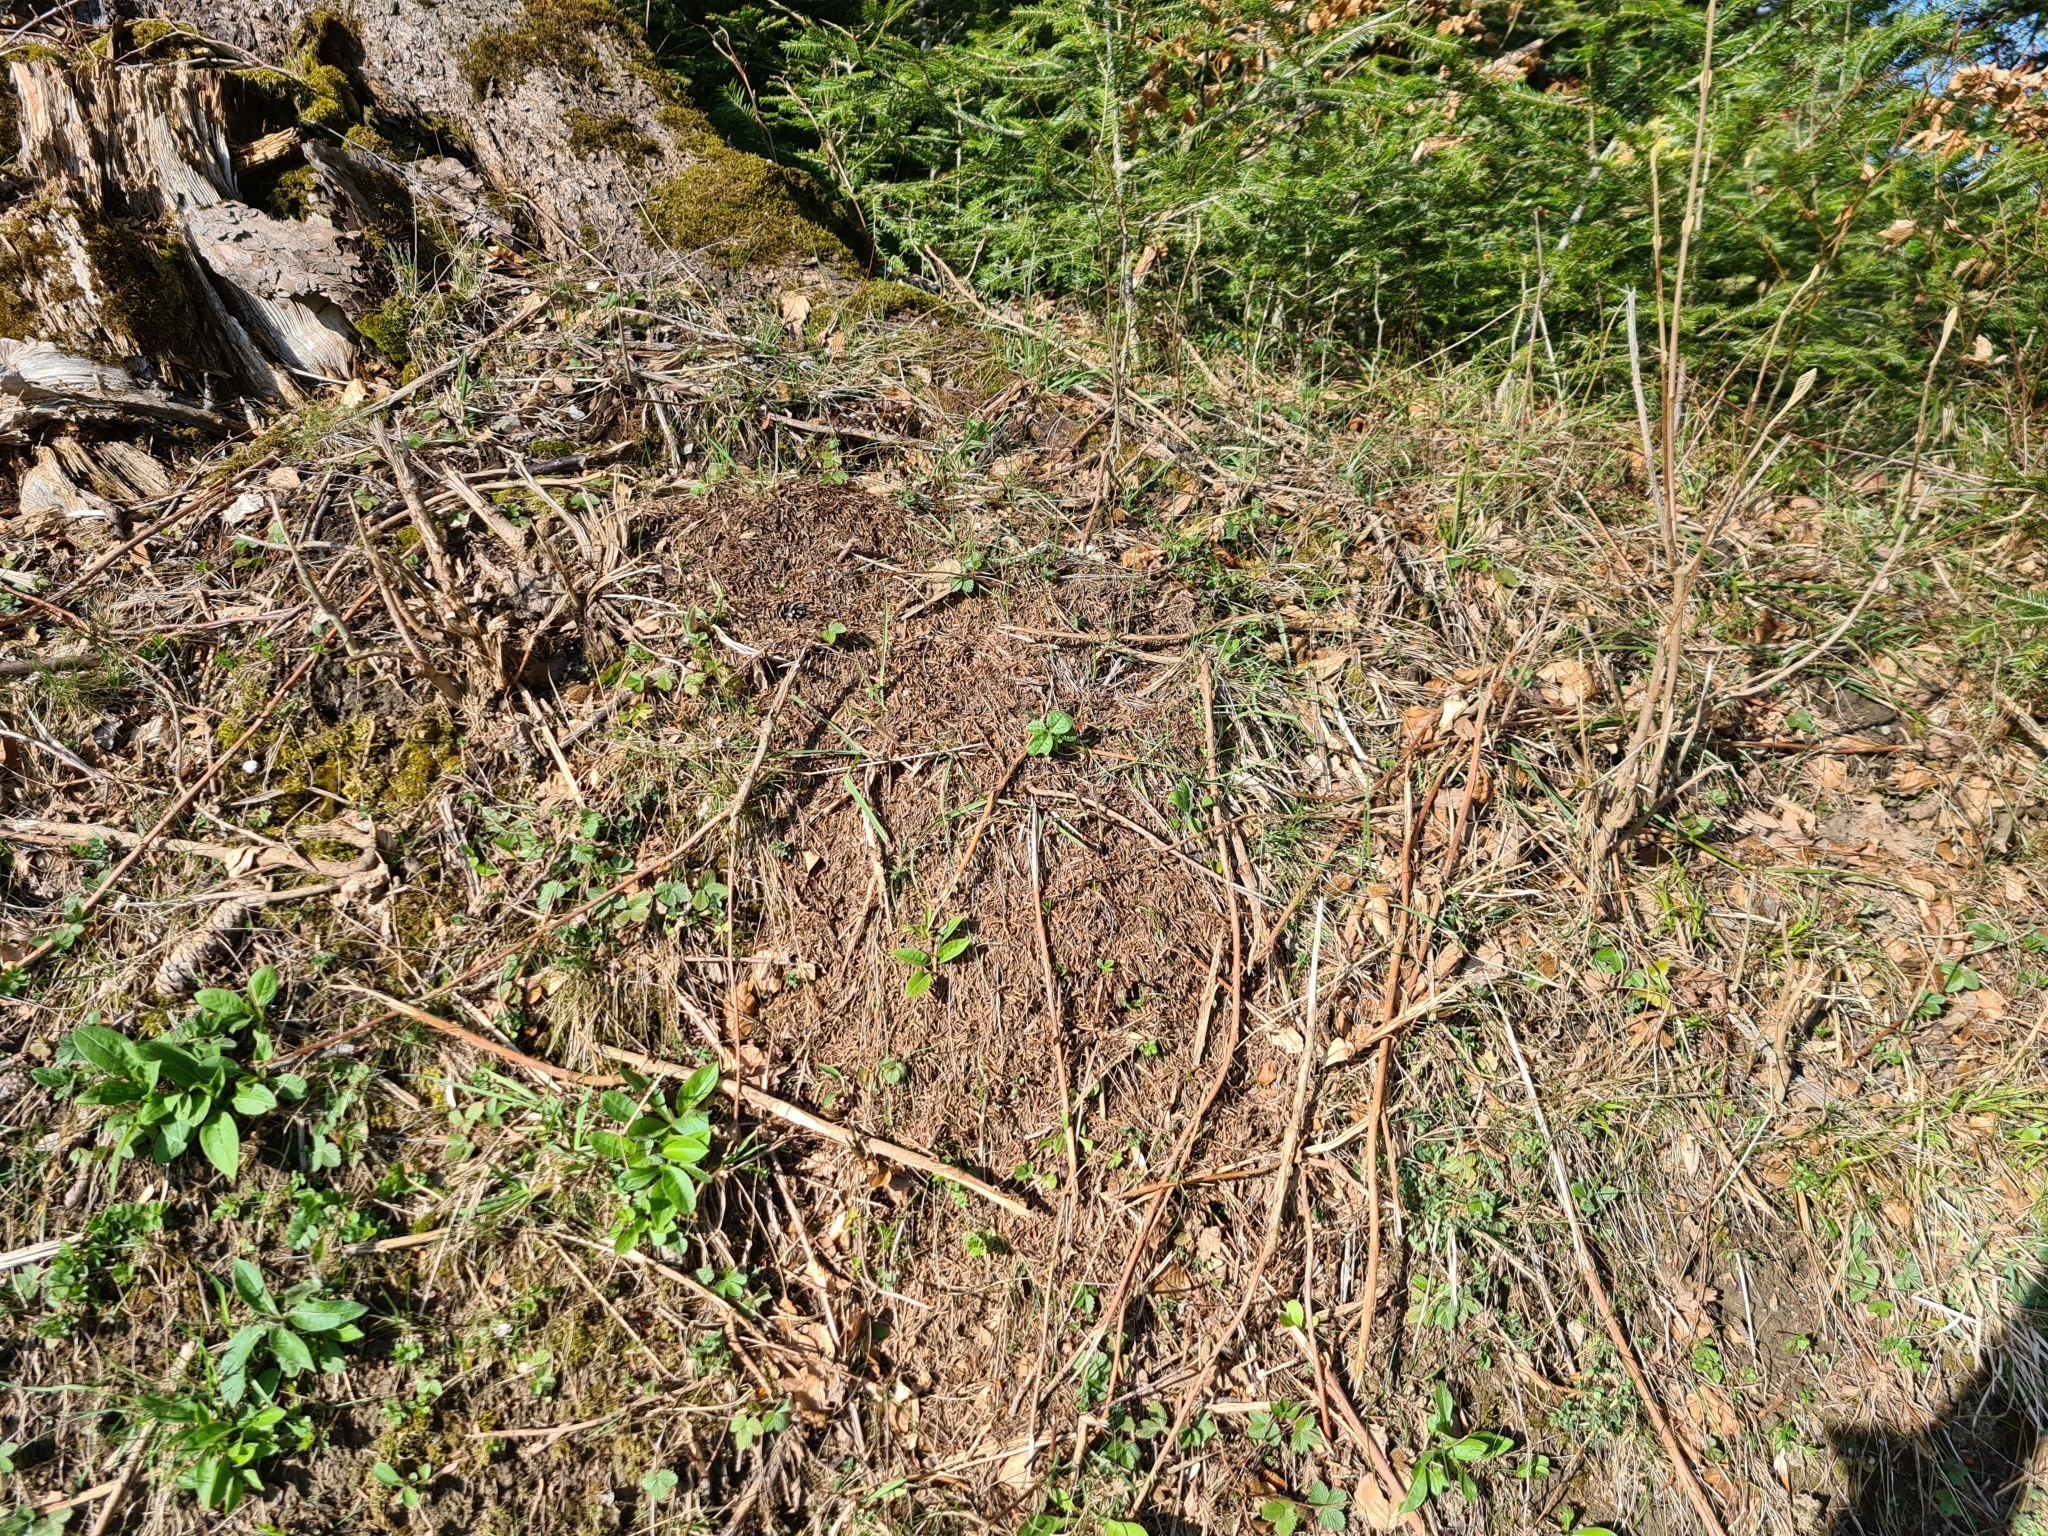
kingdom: Animalia
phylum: Arthropoda
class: Insecta
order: Hymenoptera
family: Formicidae
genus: Formica
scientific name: Formica
